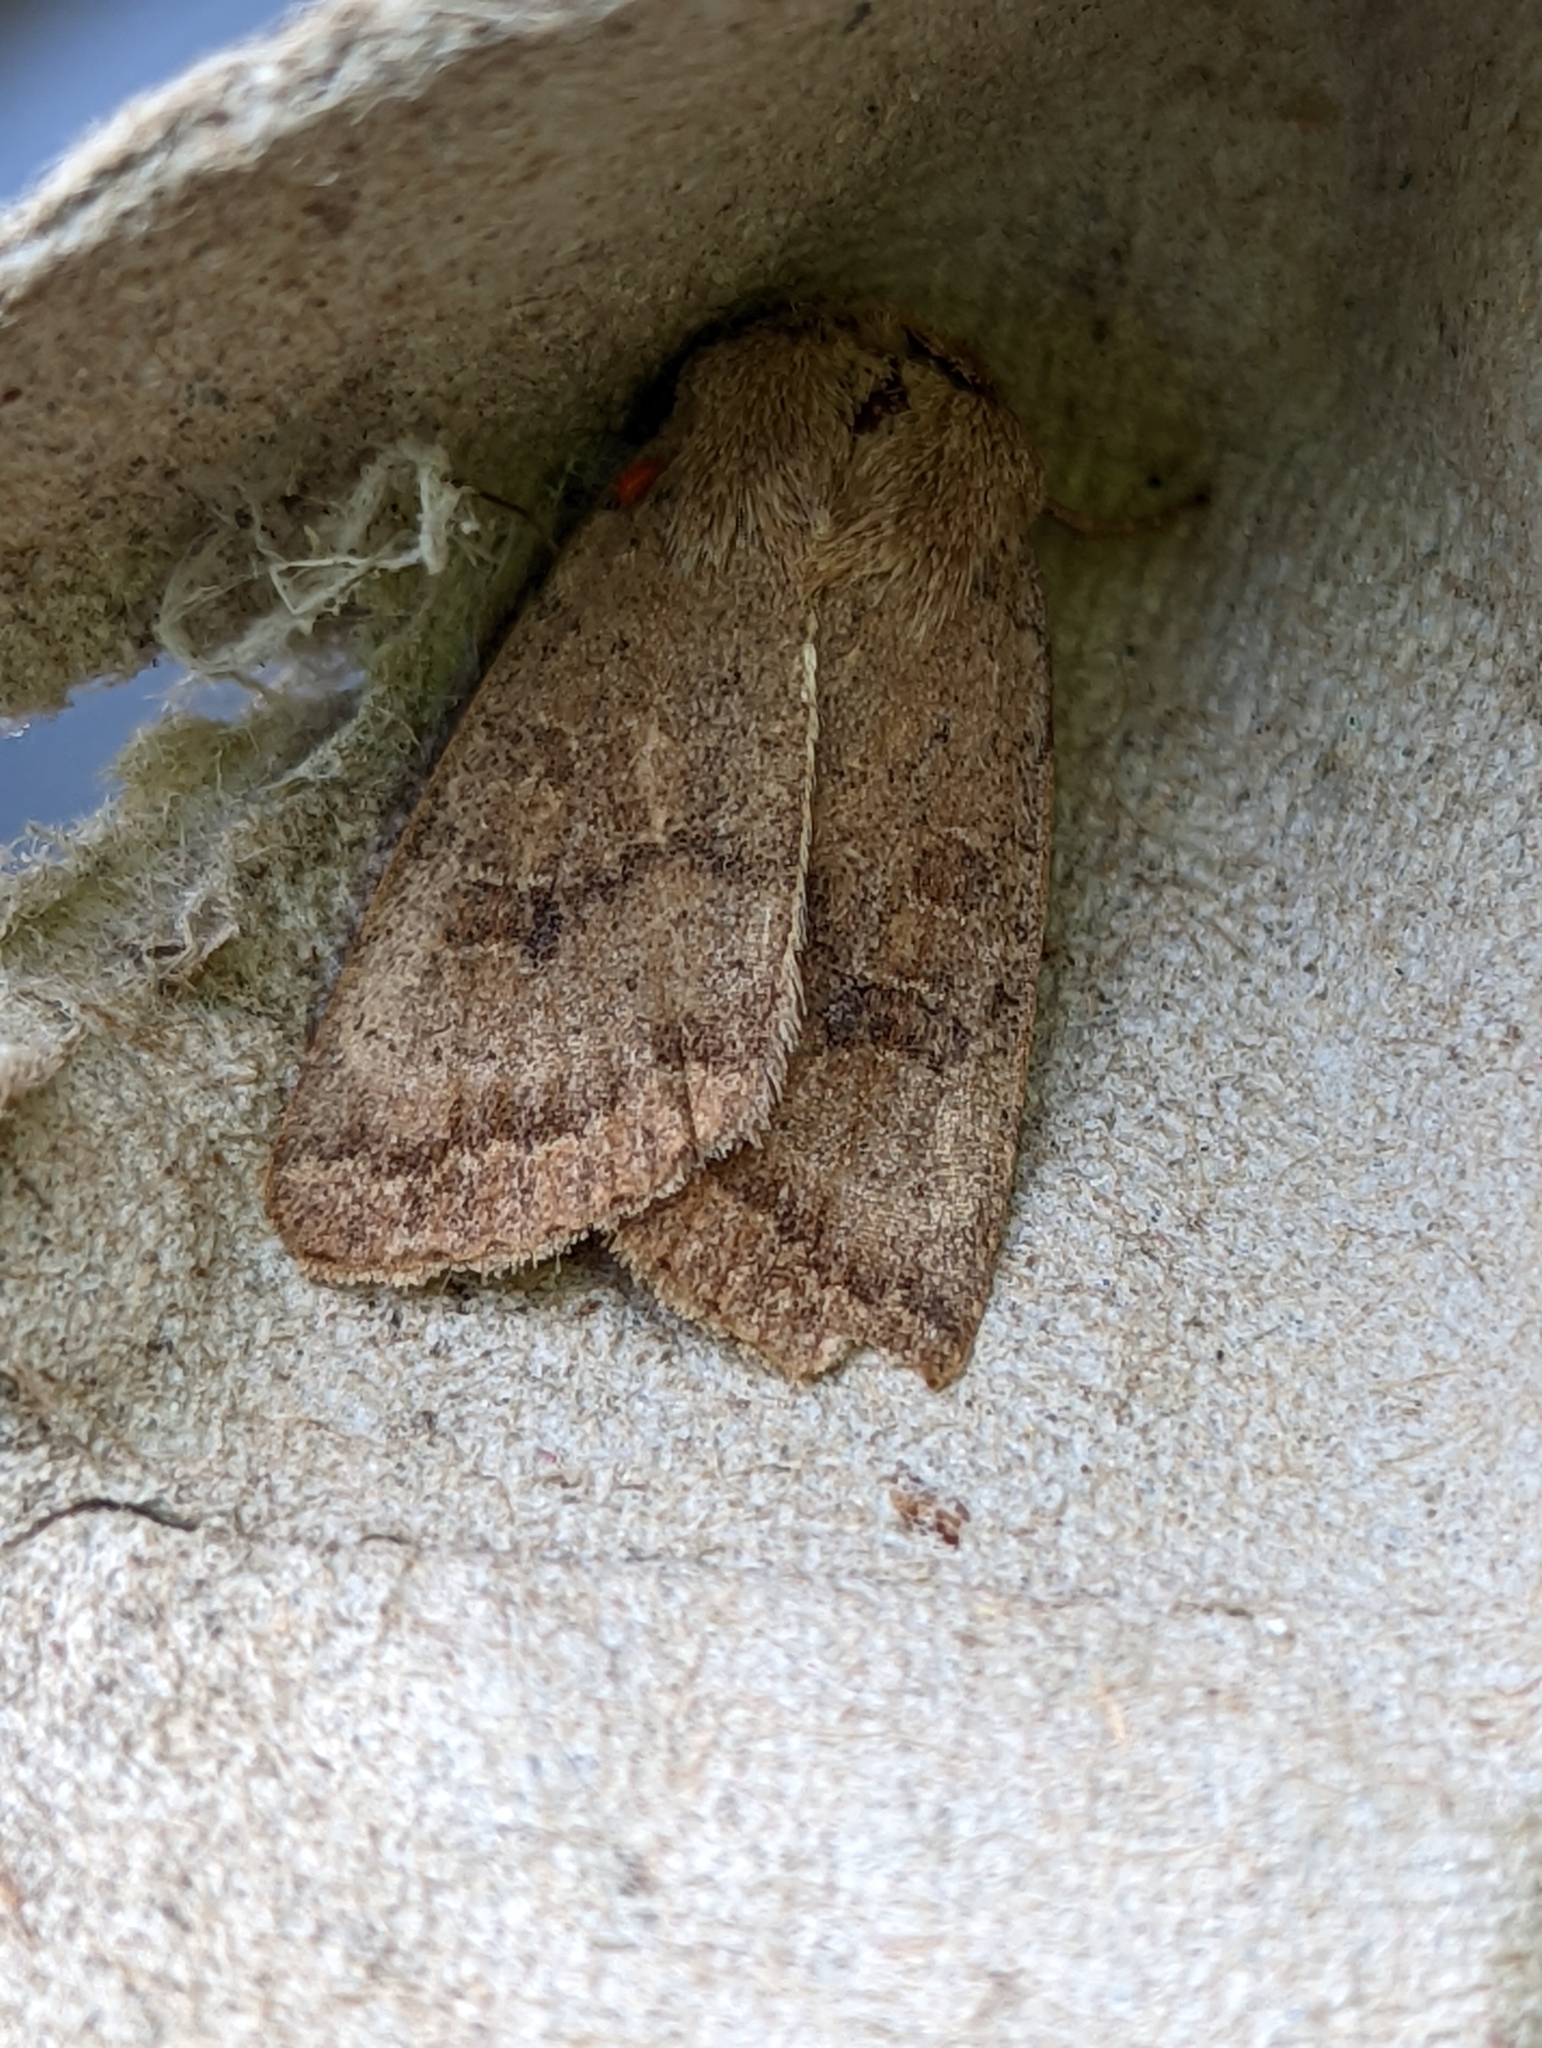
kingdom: Animalia
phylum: Arthropoda
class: Insecta
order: Lepidoptera
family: Noctuidae
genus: Hoplodrina
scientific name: Hoplodrina octogenaria
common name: Uncertain
